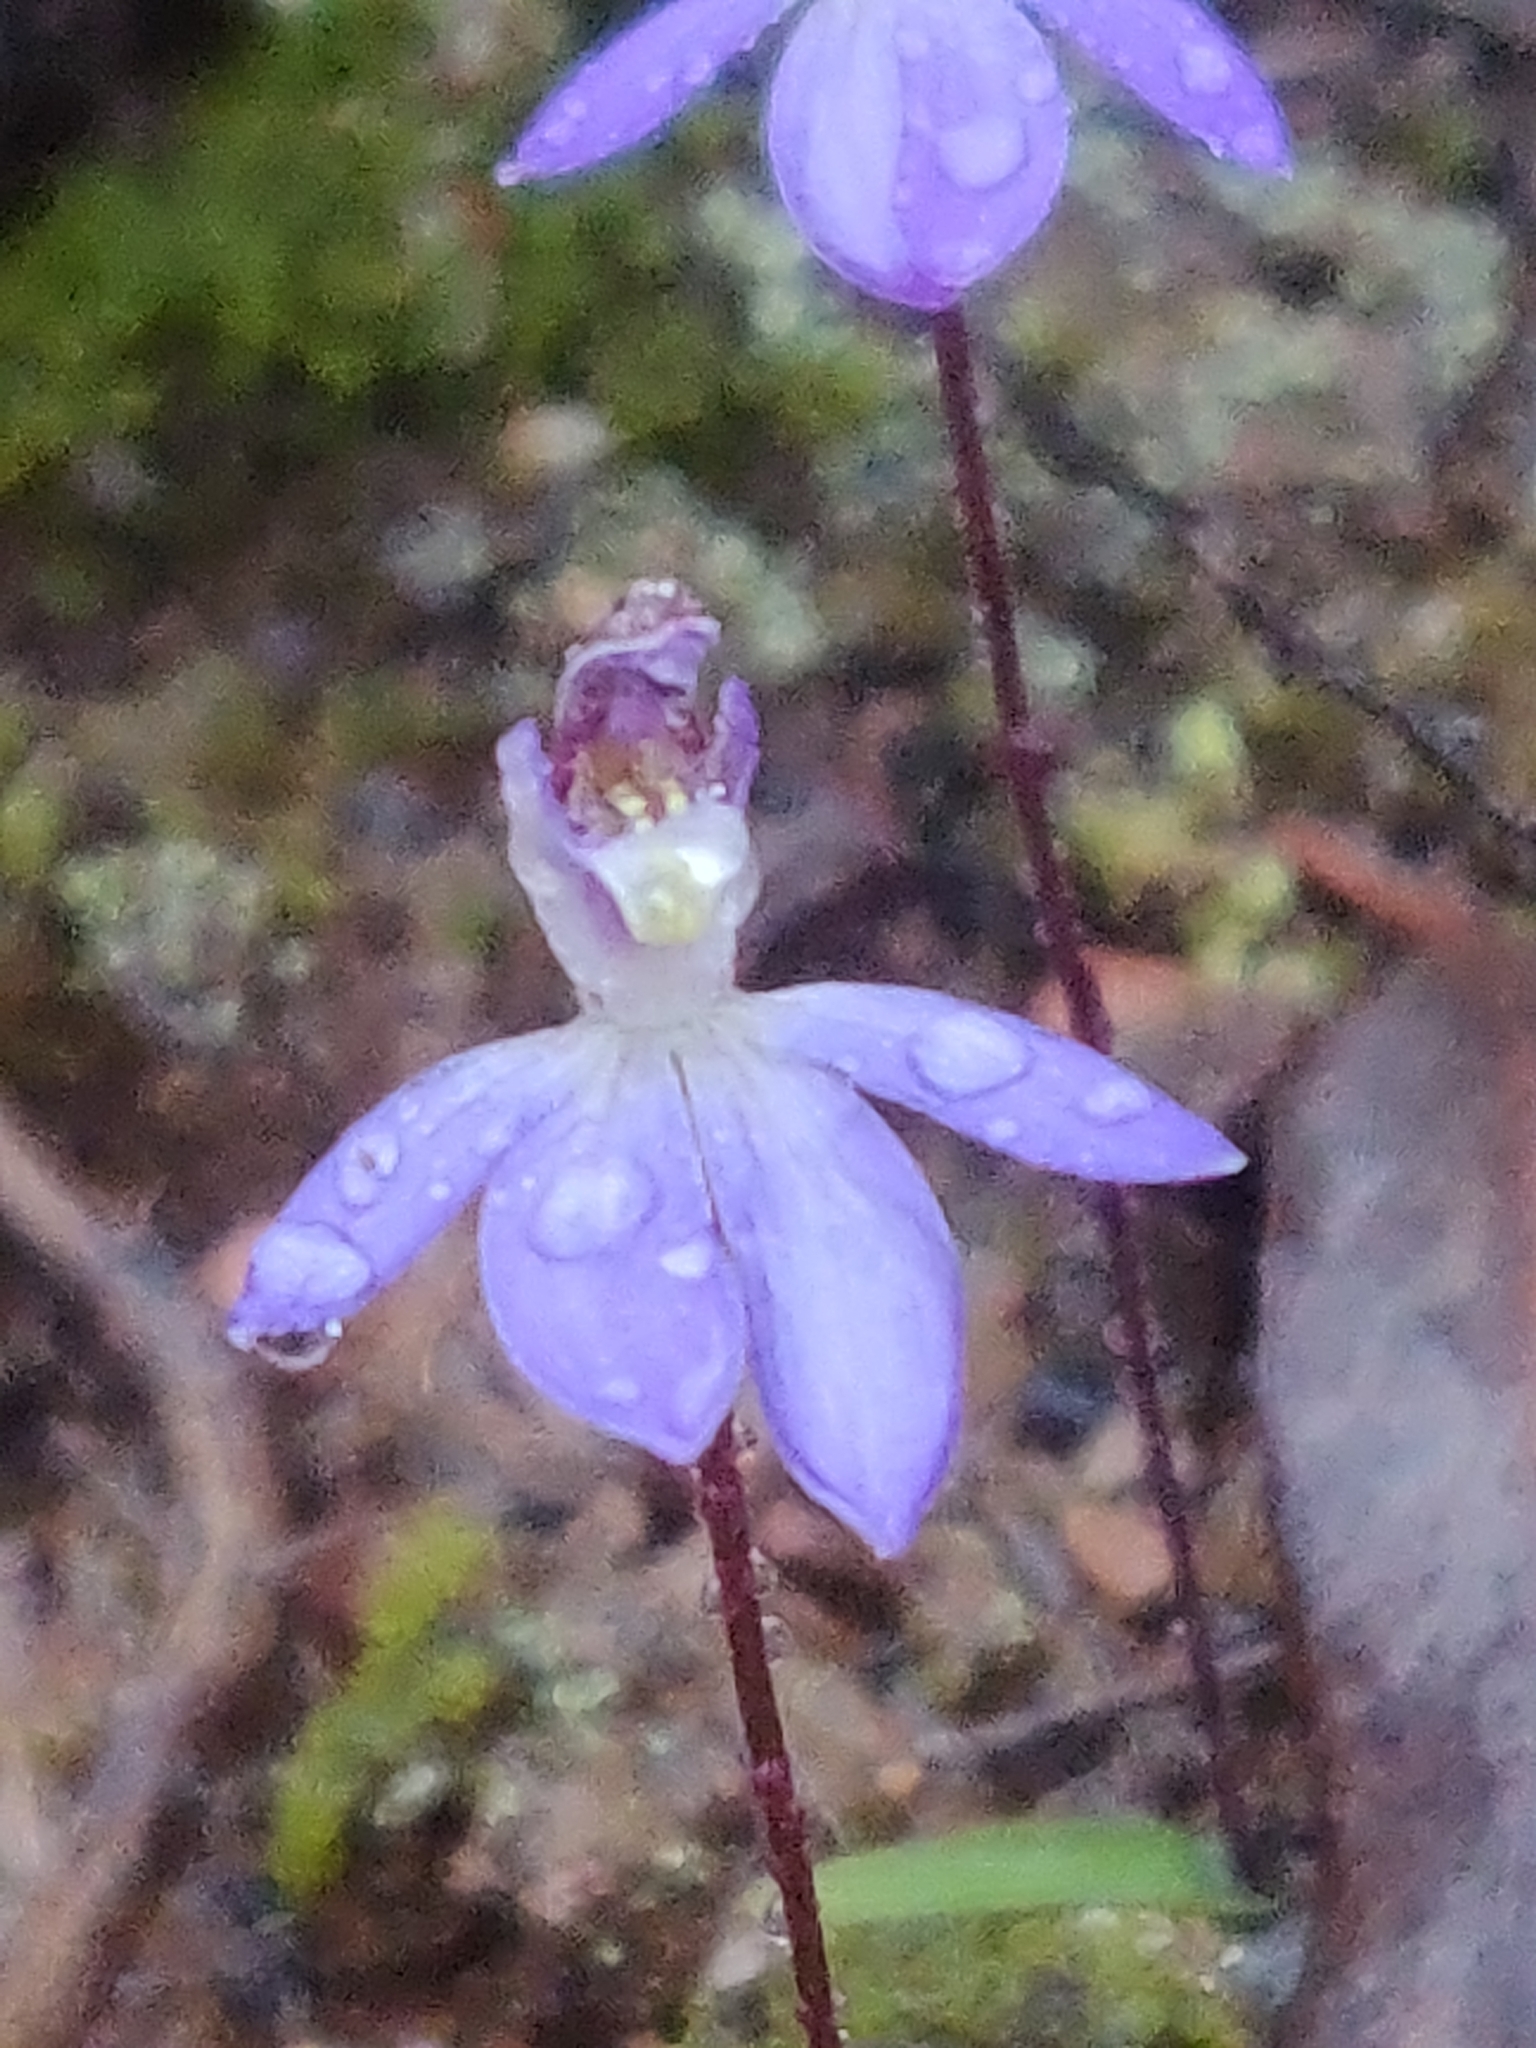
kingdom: Plantae
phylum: Tracheophyta
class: Liliopsida
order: Asparagales
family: Orchidaceae
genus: Caladenia
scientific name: Caladenia caerulea
